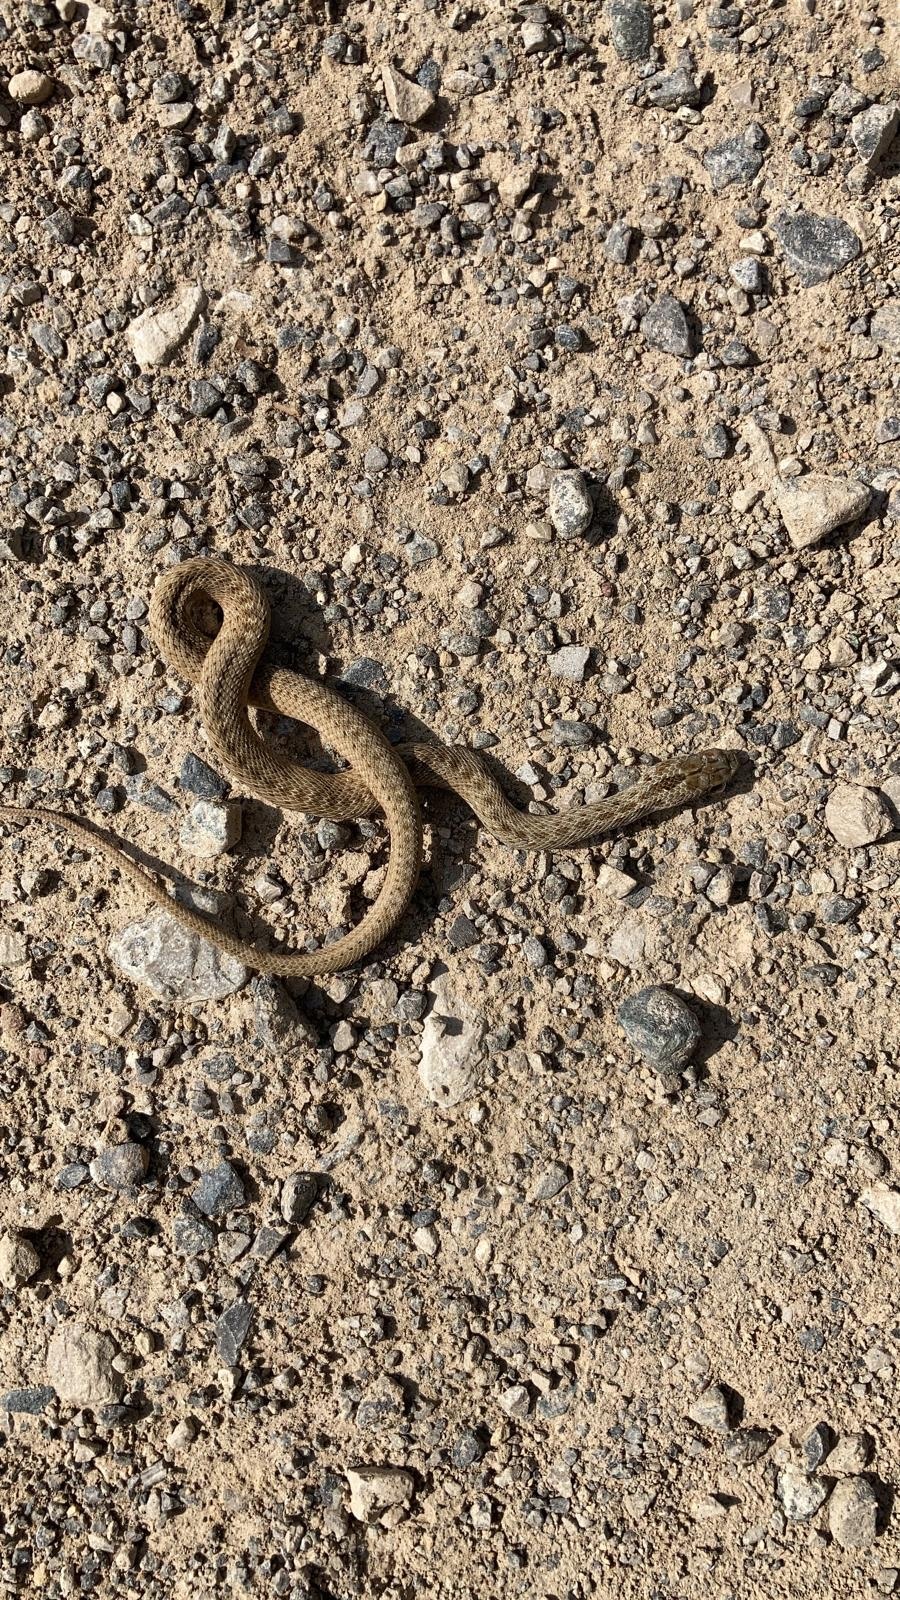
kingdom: Animalia
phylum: Chordata
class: Squamata
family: Psammophiidae
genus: Malpolon
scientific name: Malpolon monspessulanus
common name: Montpellier snake
